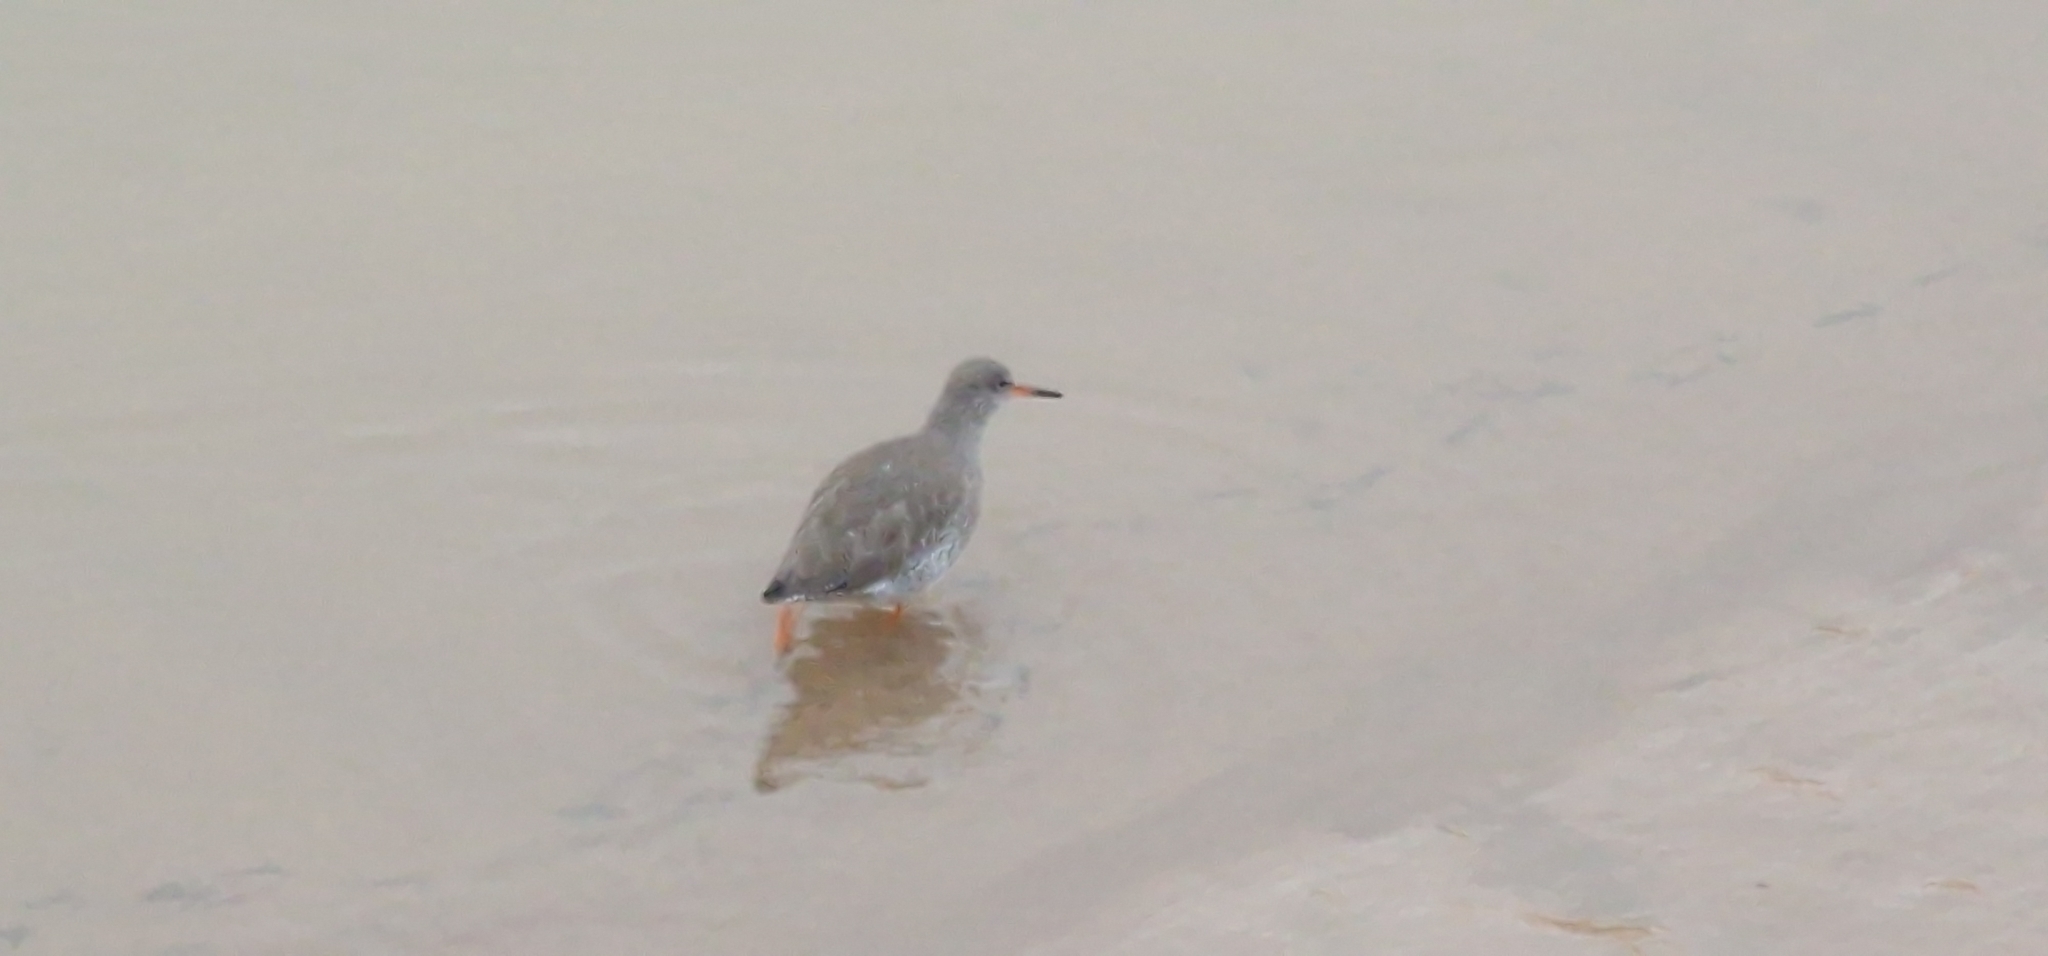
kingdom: Animalia
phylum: Chordata
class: Aves
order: Charadriiformes
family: Scolopacidae
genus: Tringa
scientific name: Tringa totanus
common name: Common redshank
